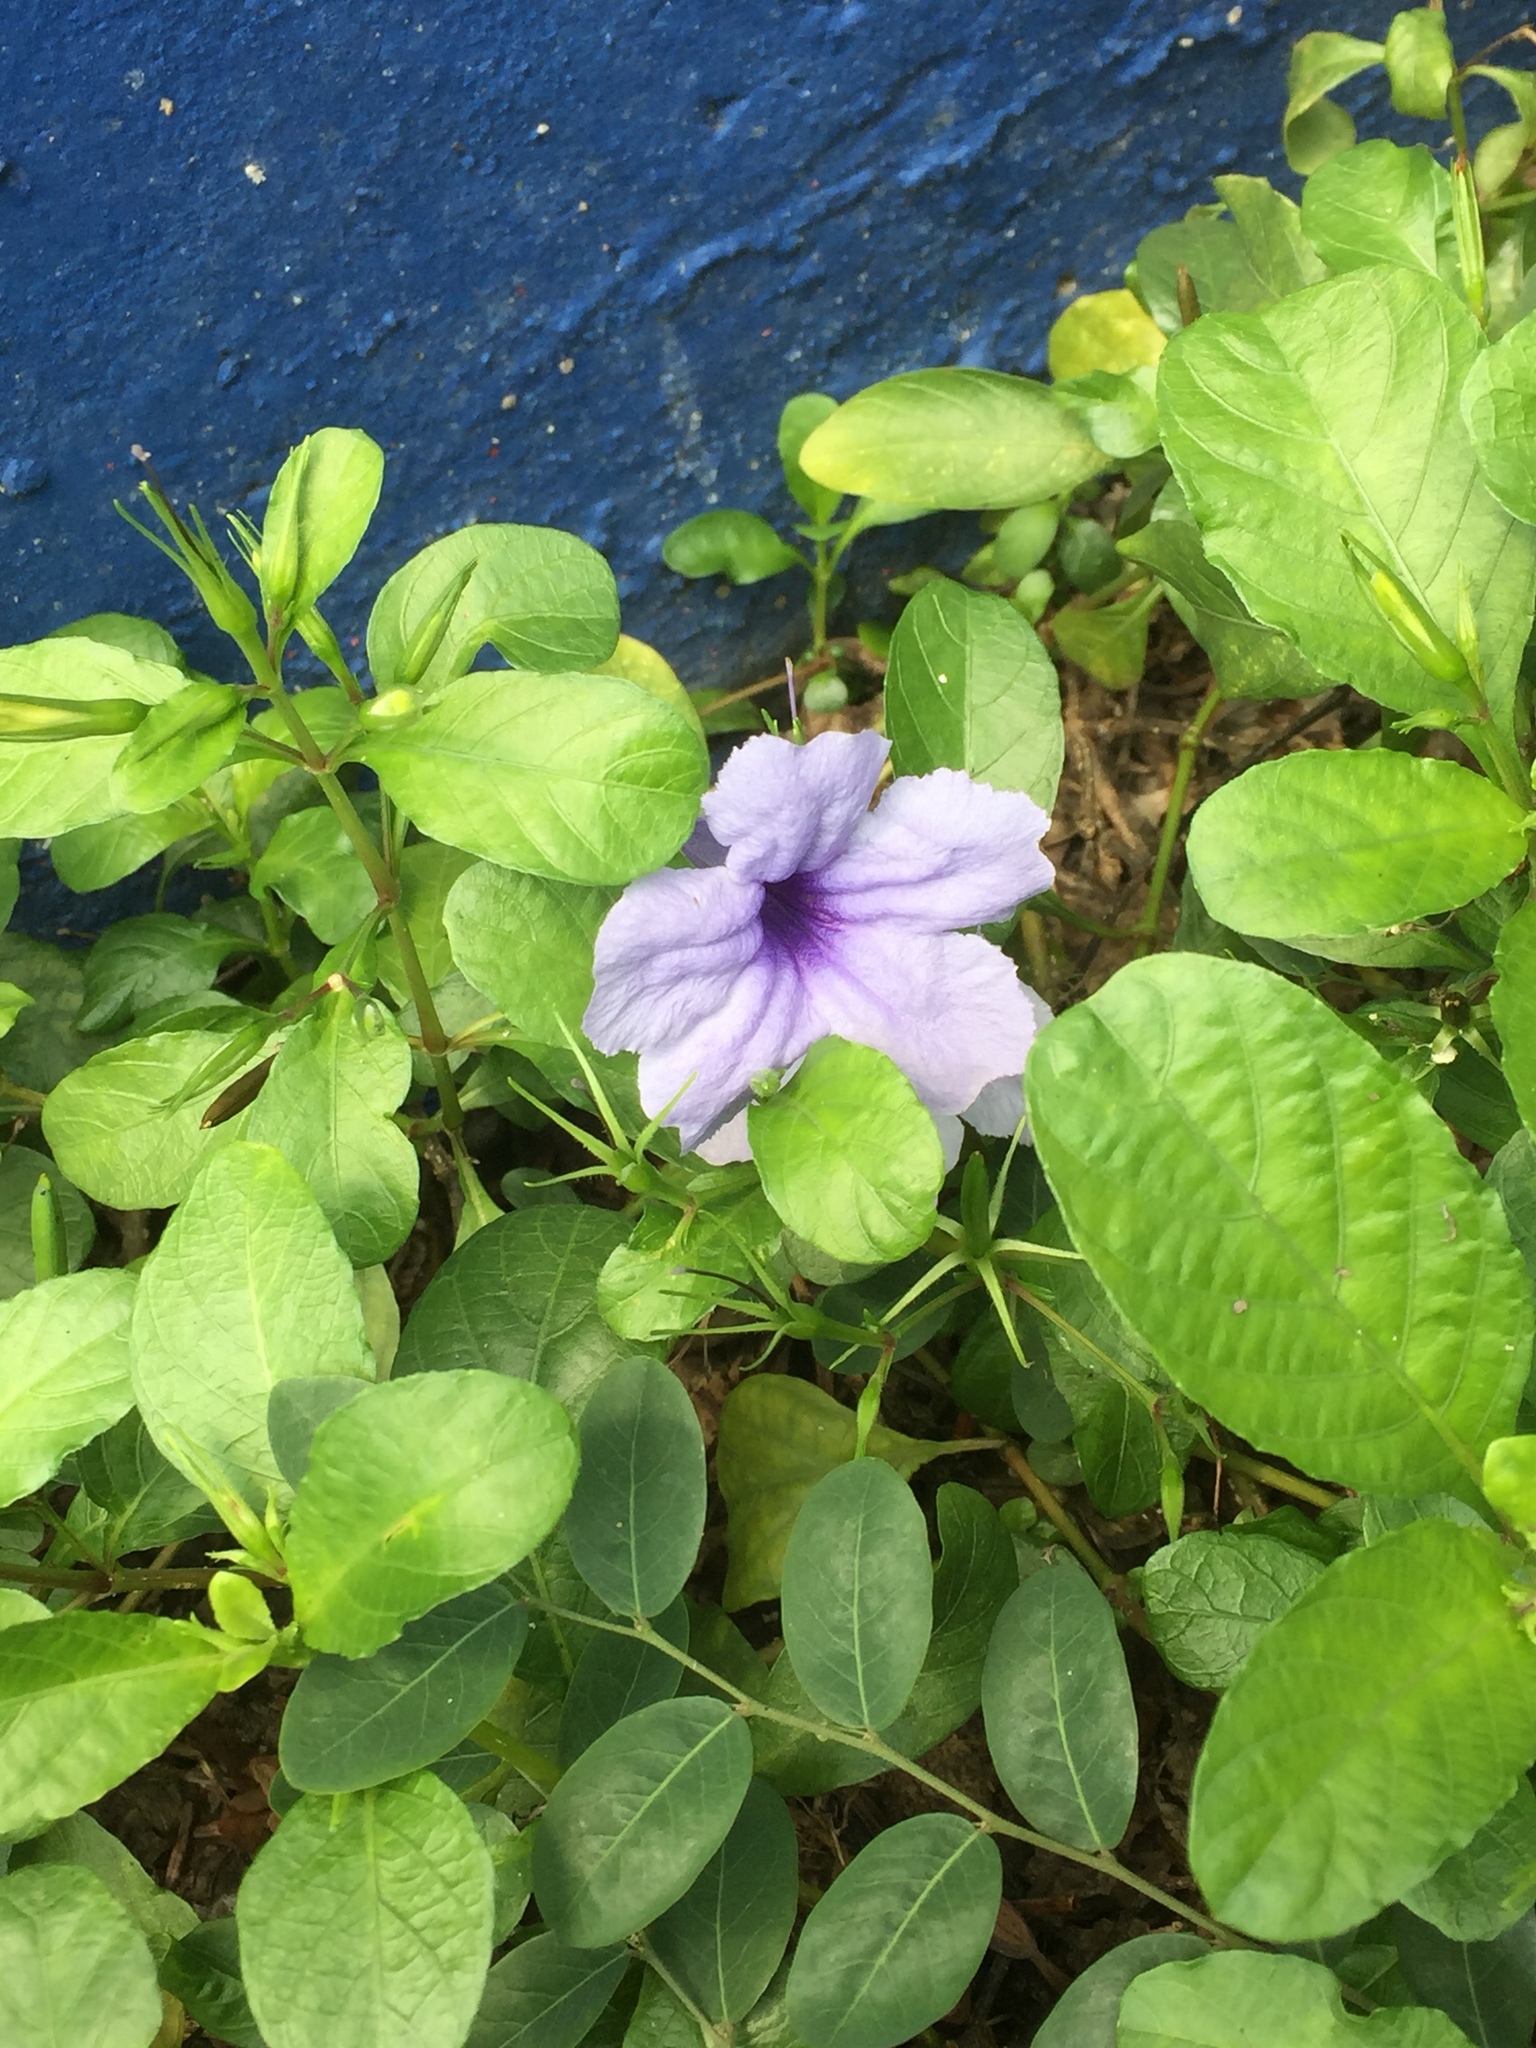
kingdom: Plantae
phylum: Tracheophyta
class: Magnoliopsida
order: Lamiales
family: Acanthaceae
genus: Ruellia
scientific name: Ruellia tuberosa
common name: Devil's bit
